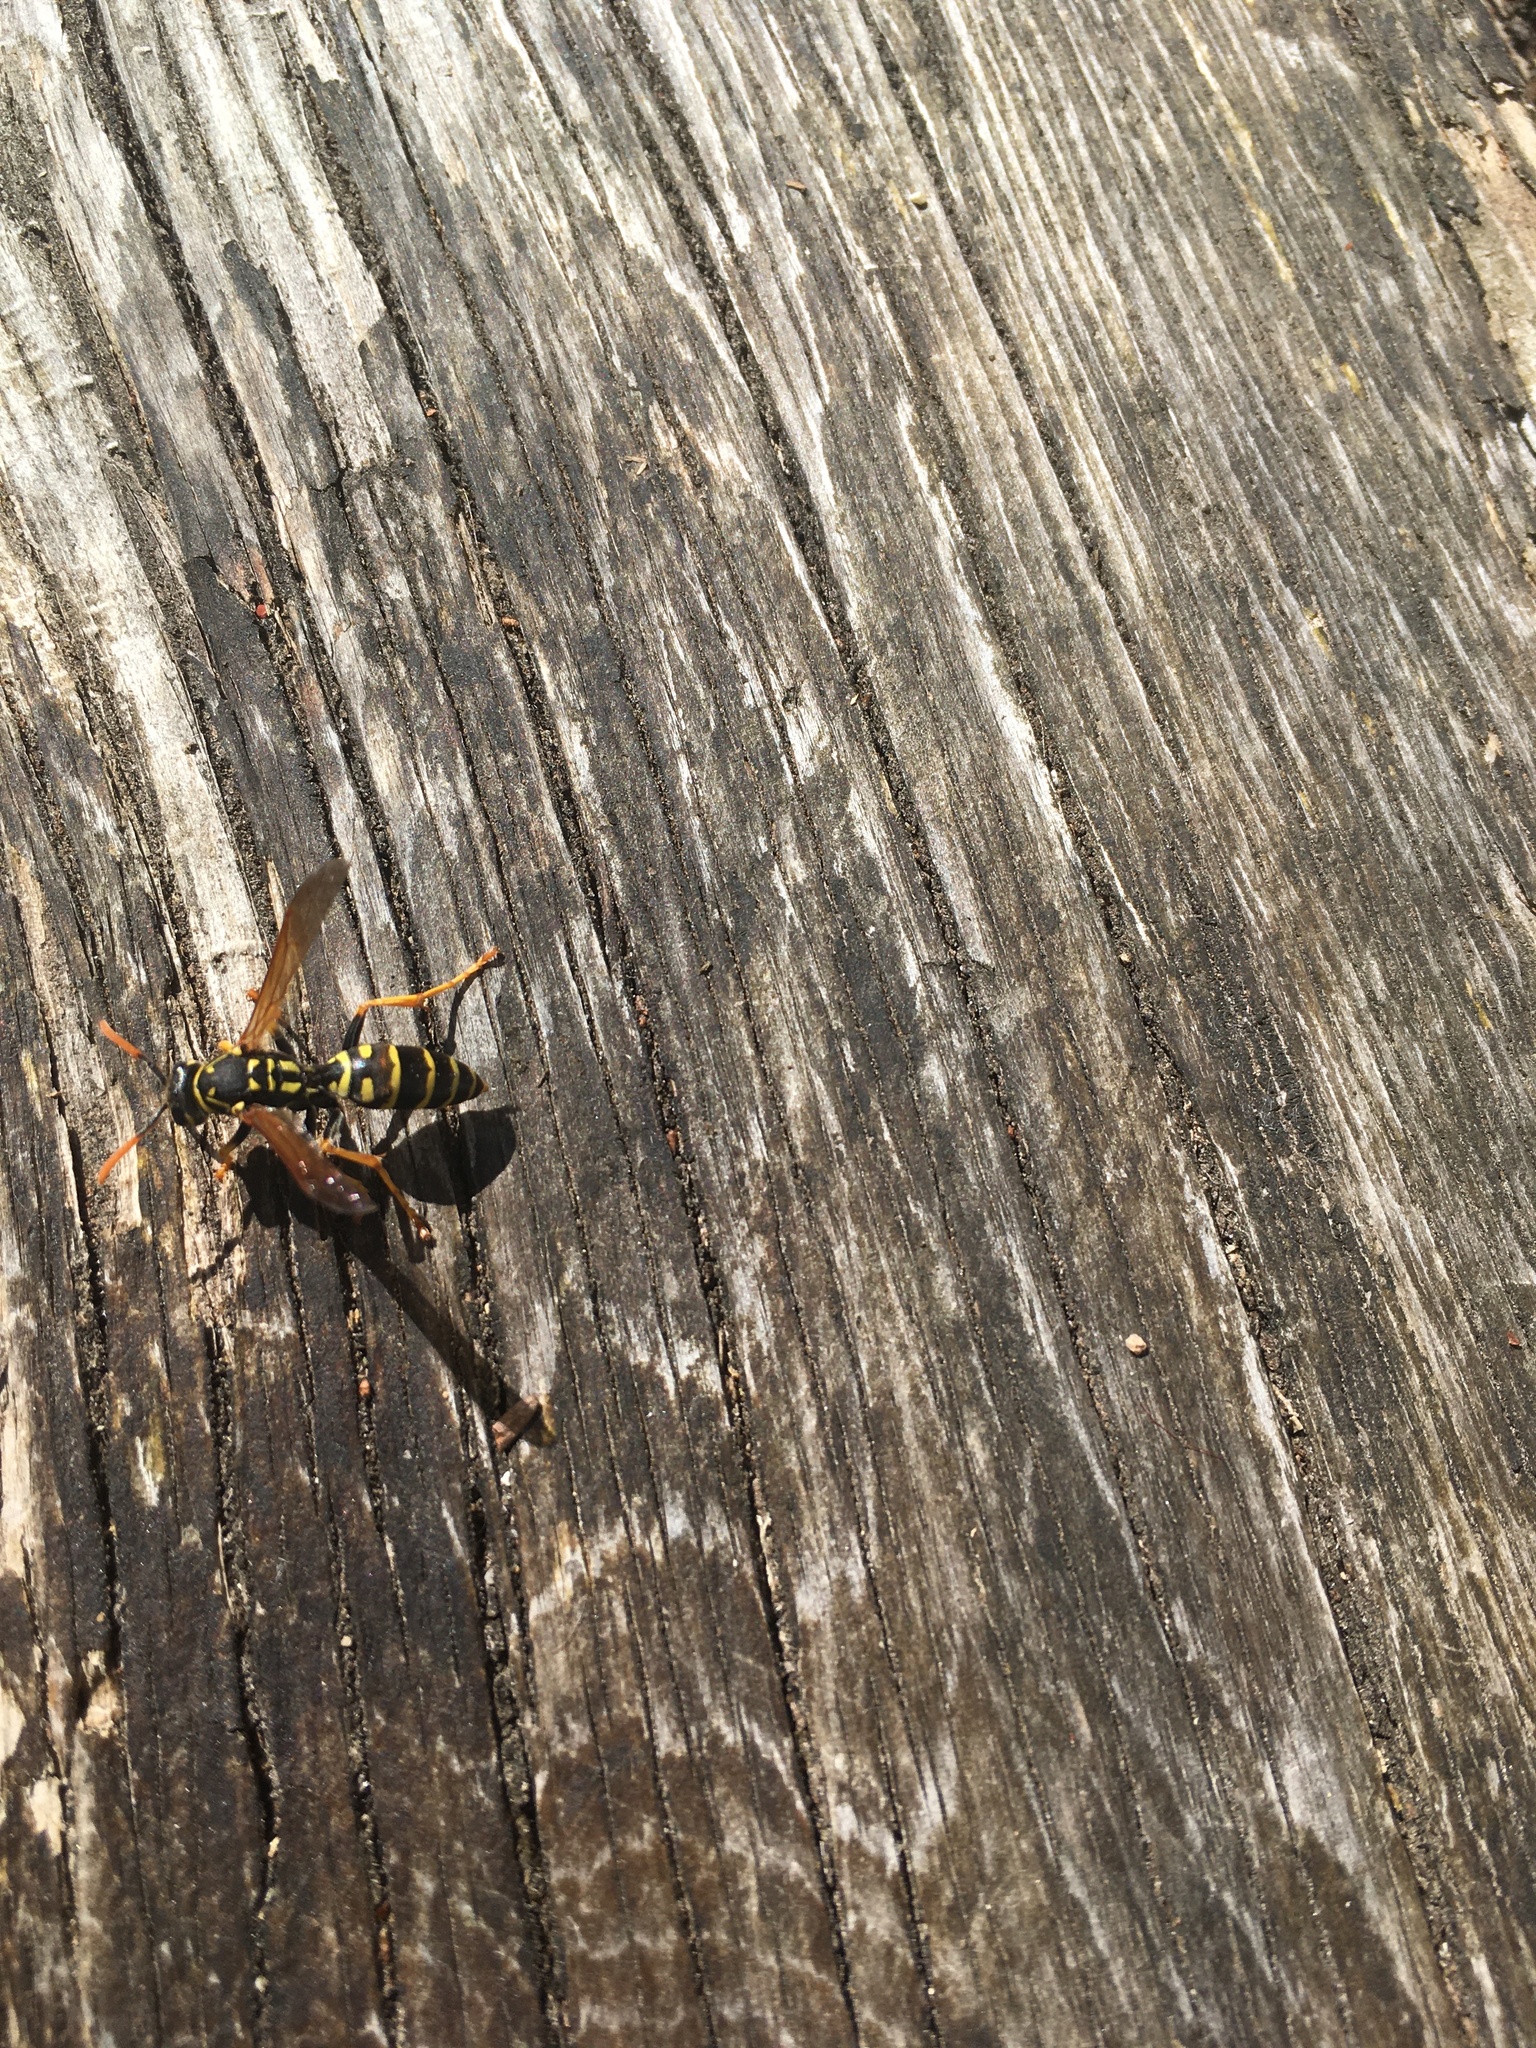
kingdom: Animalia
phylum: Arthropoda
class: Insecta
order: Hymenoptera
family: Eumenidae
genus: Polistes
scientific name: Polistes dominula
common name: Paper wasp
